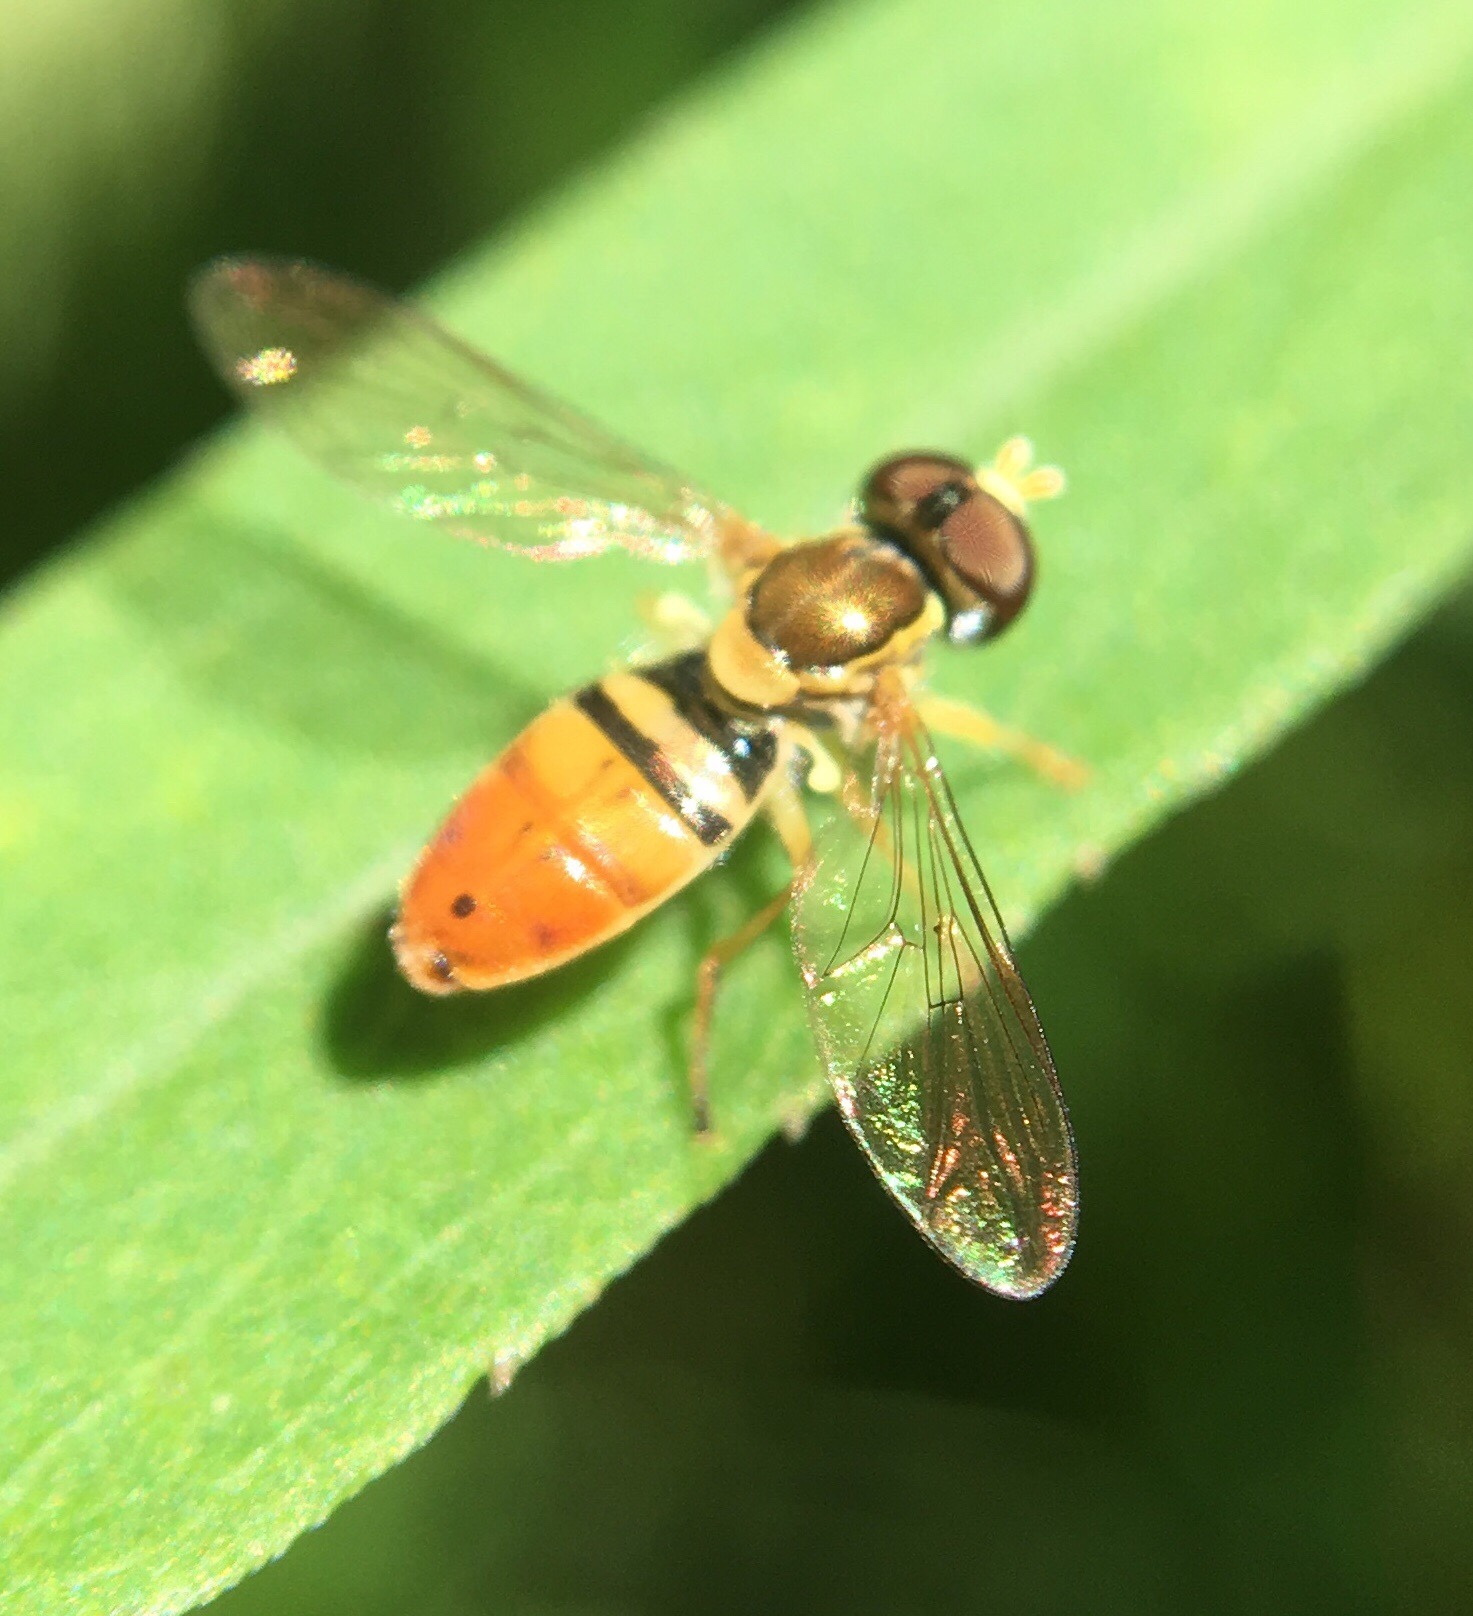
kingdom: Animalia
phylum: Arthropoda
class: Insecta
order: Diptera
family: Syrphidae
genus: Toxomerus
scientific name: Toxomerus marginatus
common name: Syrphid fly
